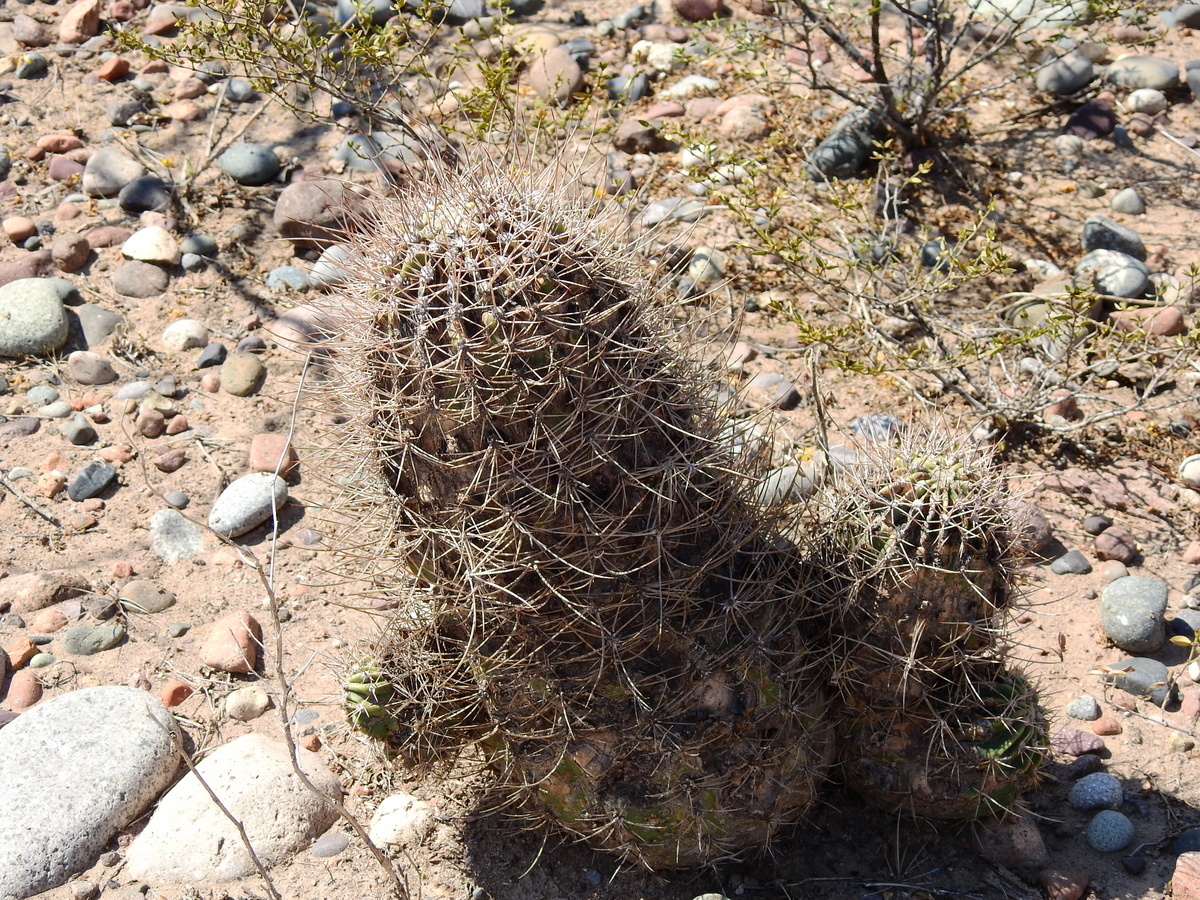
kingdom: Plantae
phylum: Tracheophyta
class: Magnoliopsida
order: Caryophyllales
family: Cactaceae
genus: Acanthocalycium
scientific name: Acanthocalycium leucanthum
